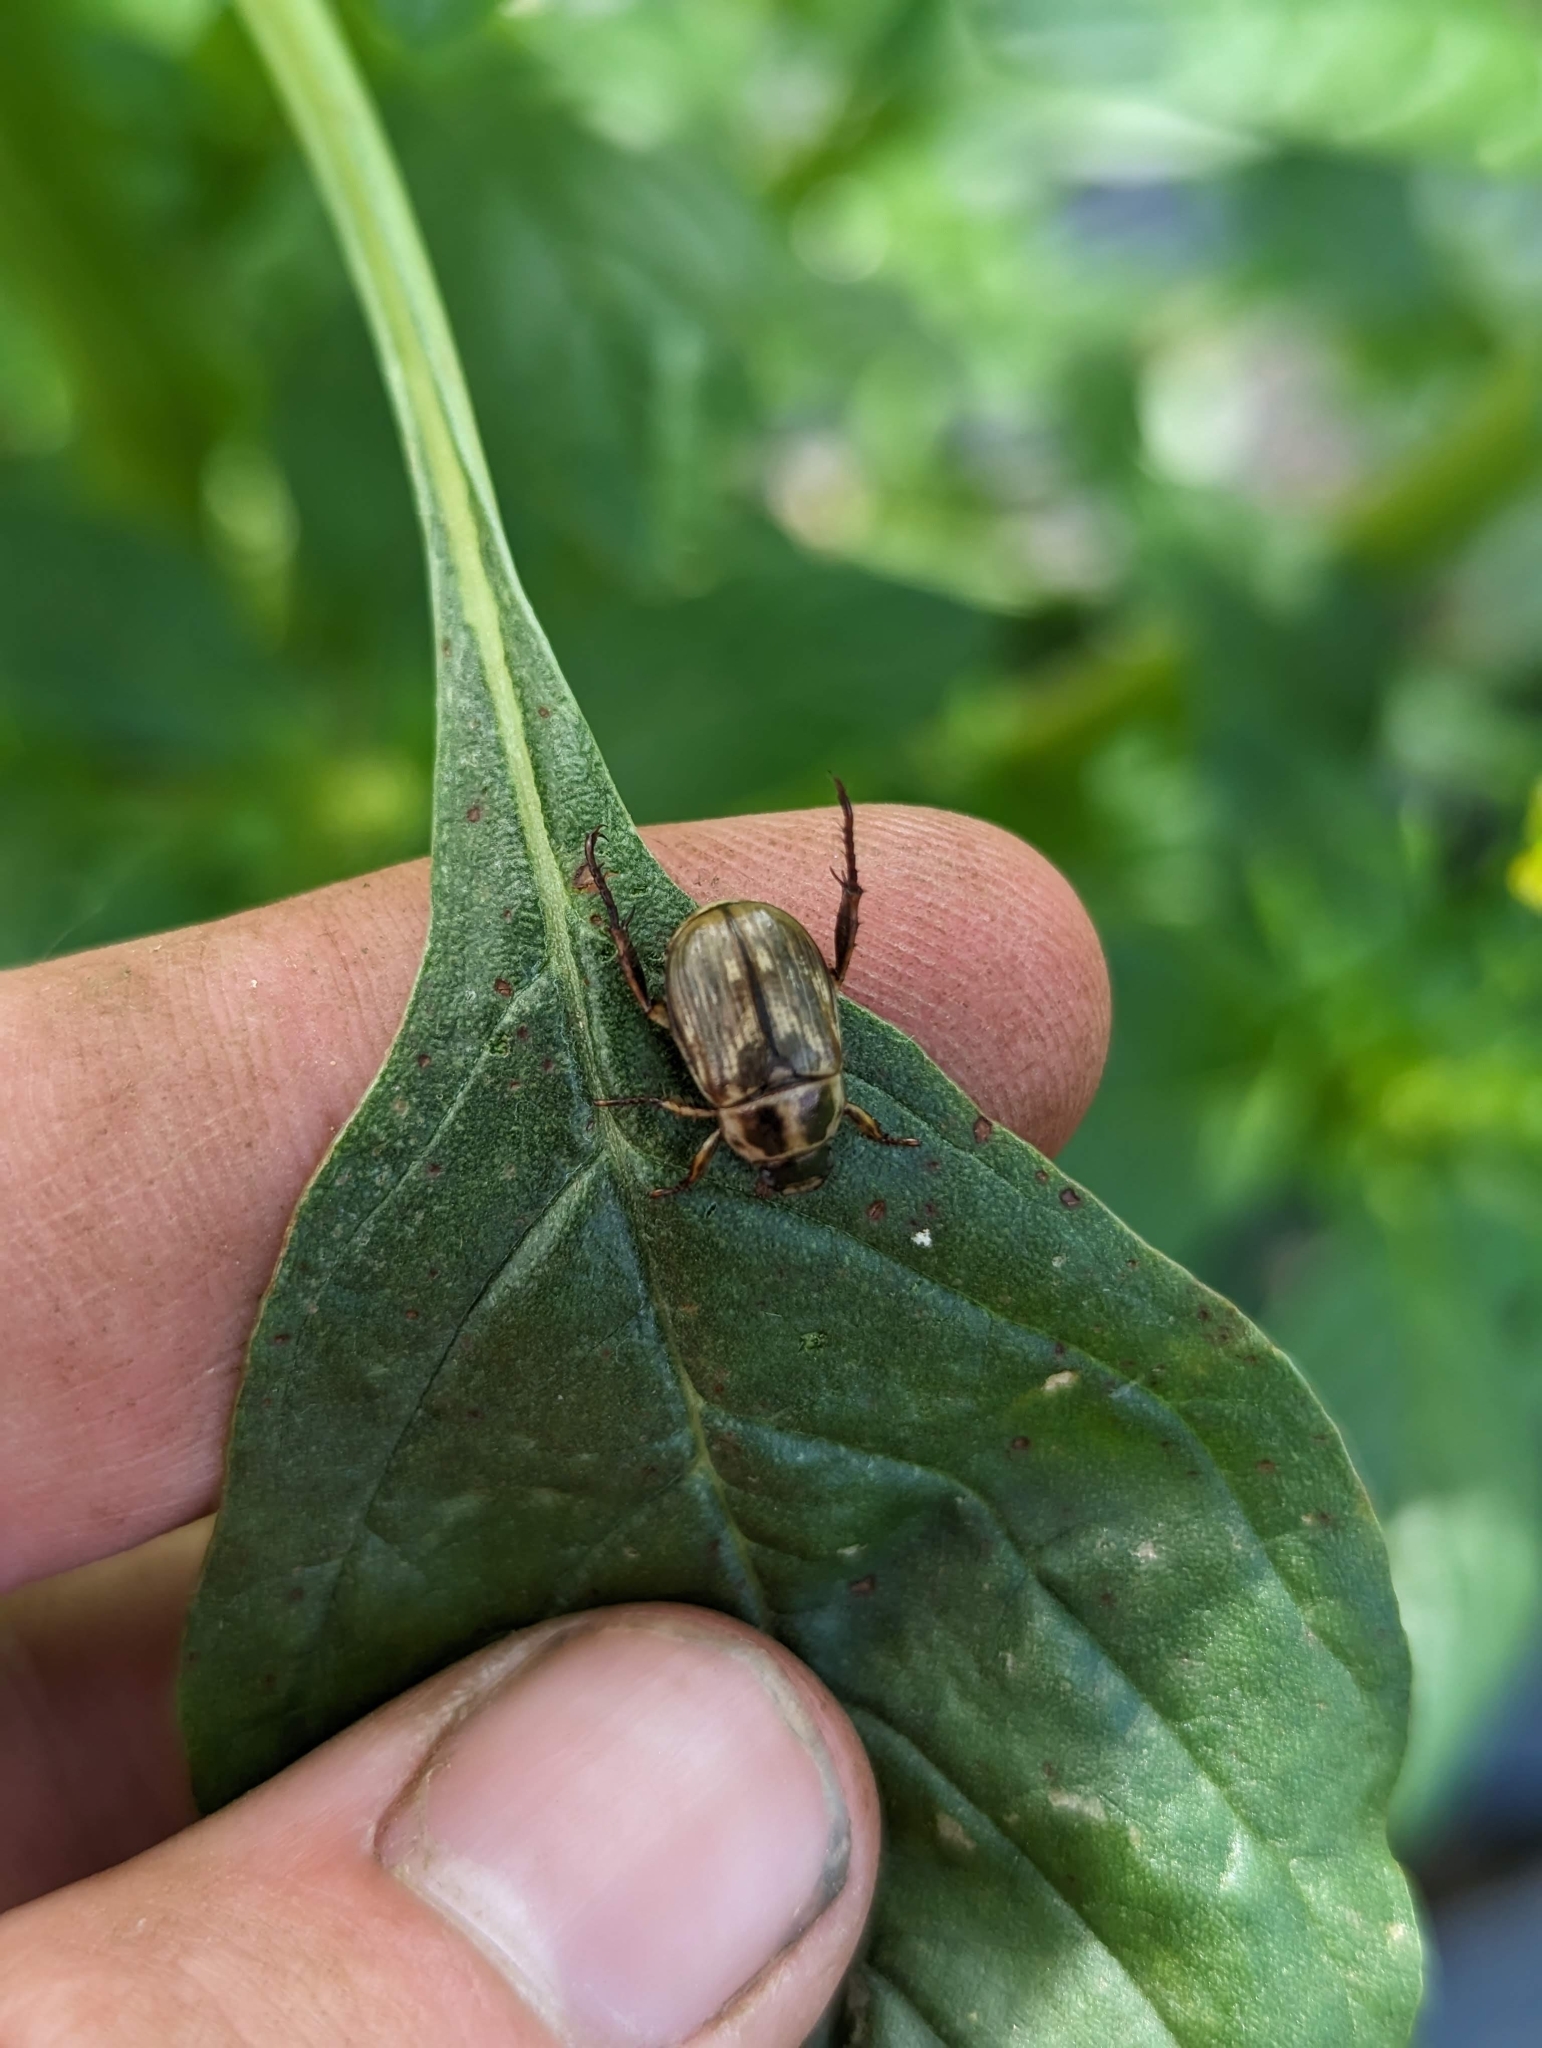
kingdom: Animalia
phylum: Arthropoda
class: Insecta
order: Coleoptera
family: Scarabaeidae
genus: Exomala
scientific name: Exomala orientalis
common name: Oriental beetle
